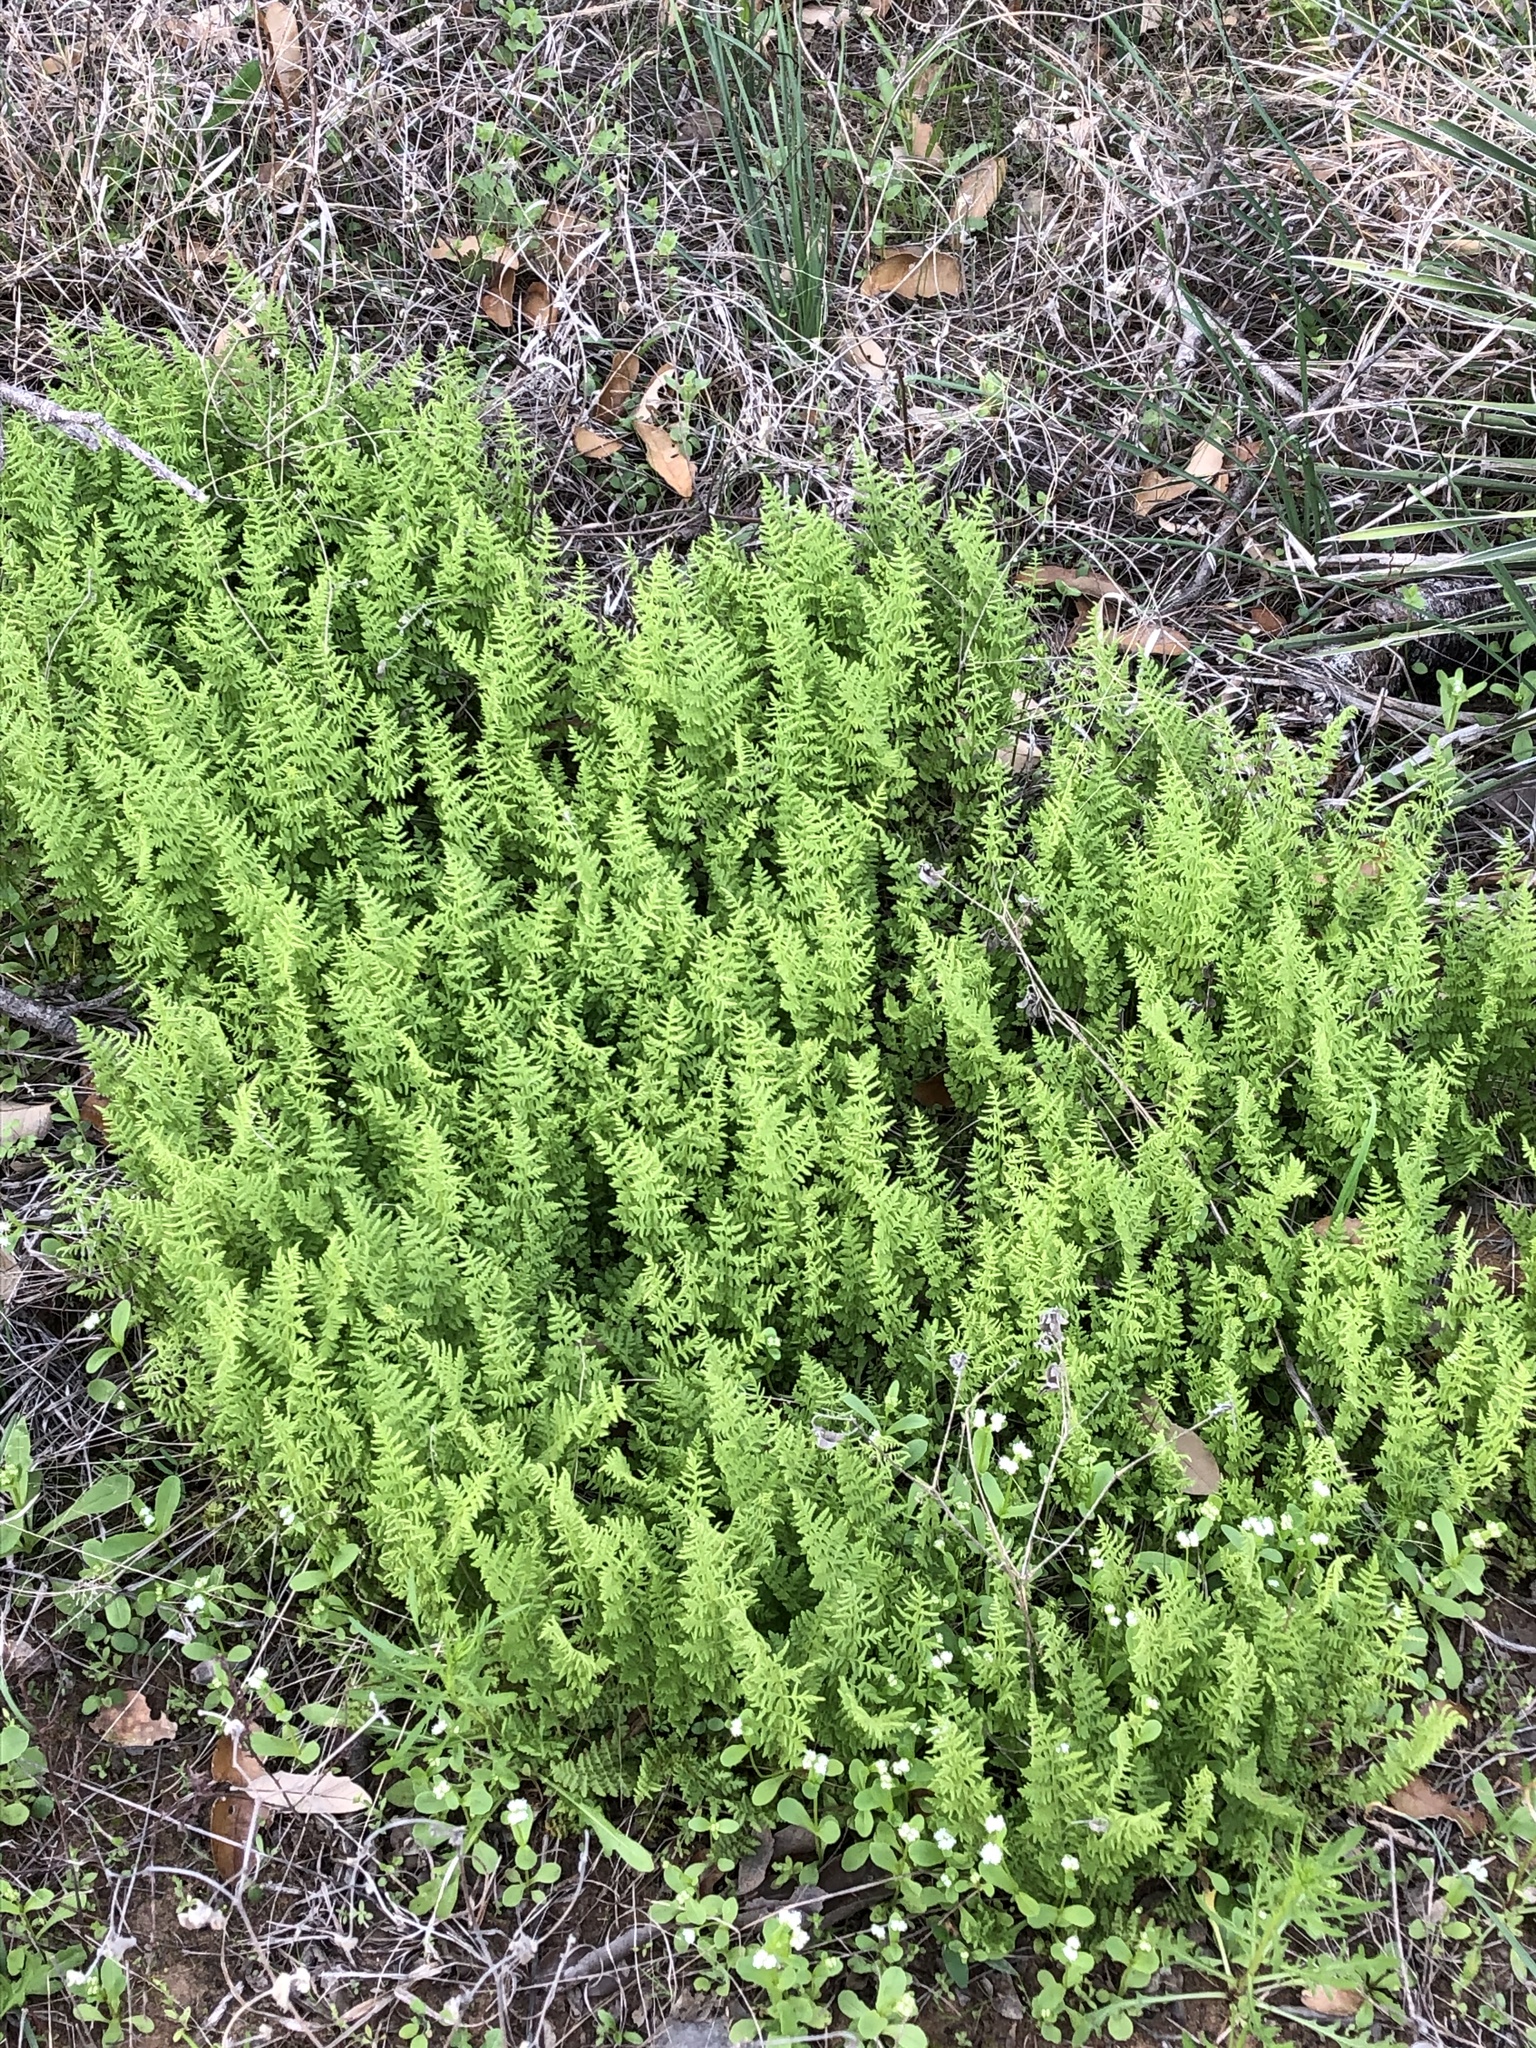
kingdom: Plantae
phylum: Tracheophyta
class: Polypodiopsida
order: Polypodiales
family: Woodsiaceae
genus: Physematium
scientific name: Physematium obtusum
